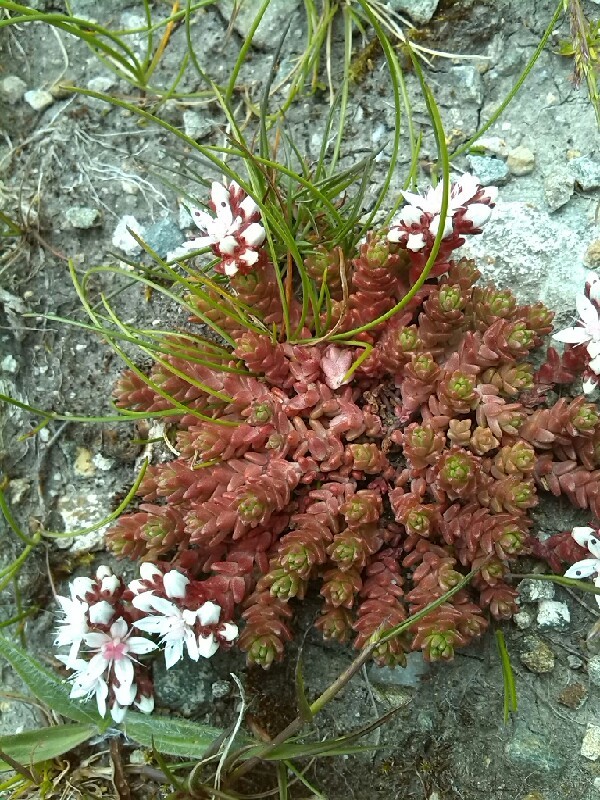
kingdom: Plantae
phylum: Tracheophyta
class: Magnoliopsida
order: Saxifragales
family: Crassulaceae
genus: Sedum
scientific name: Sedum album
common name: White stonecrop
